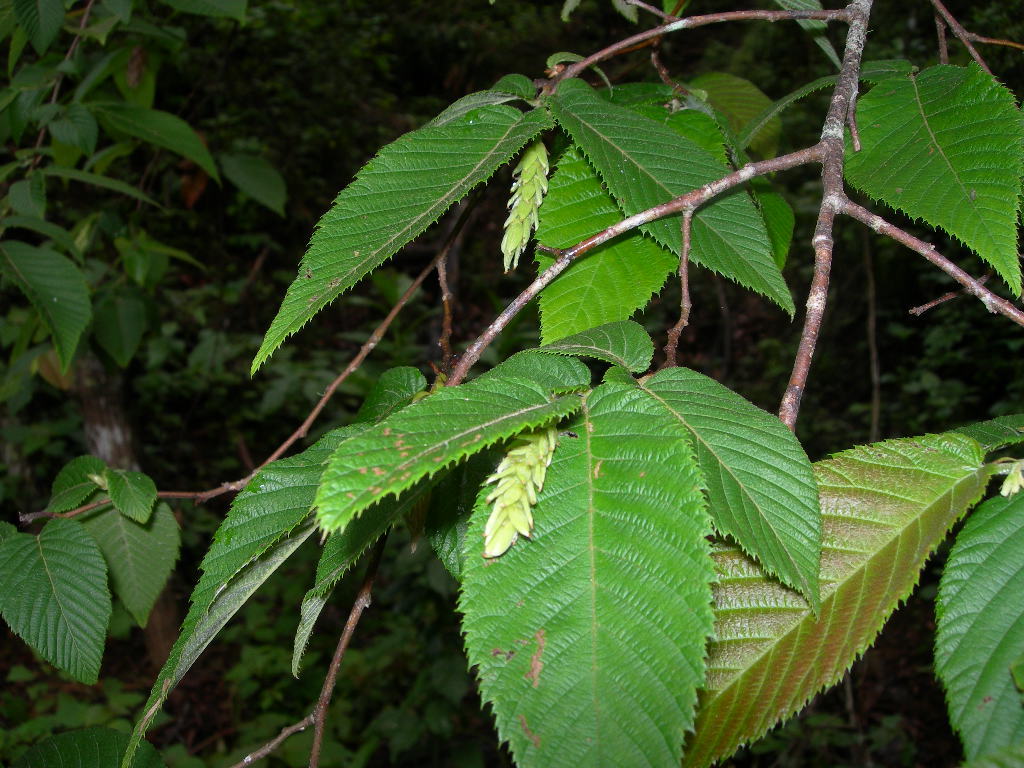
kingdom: Plantae
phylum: Tracheophyta
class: Magnoliopsida
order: Fagales
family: Betulaceae
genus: Ostrya
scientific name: Ostrya virginiana
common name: Ironwood
